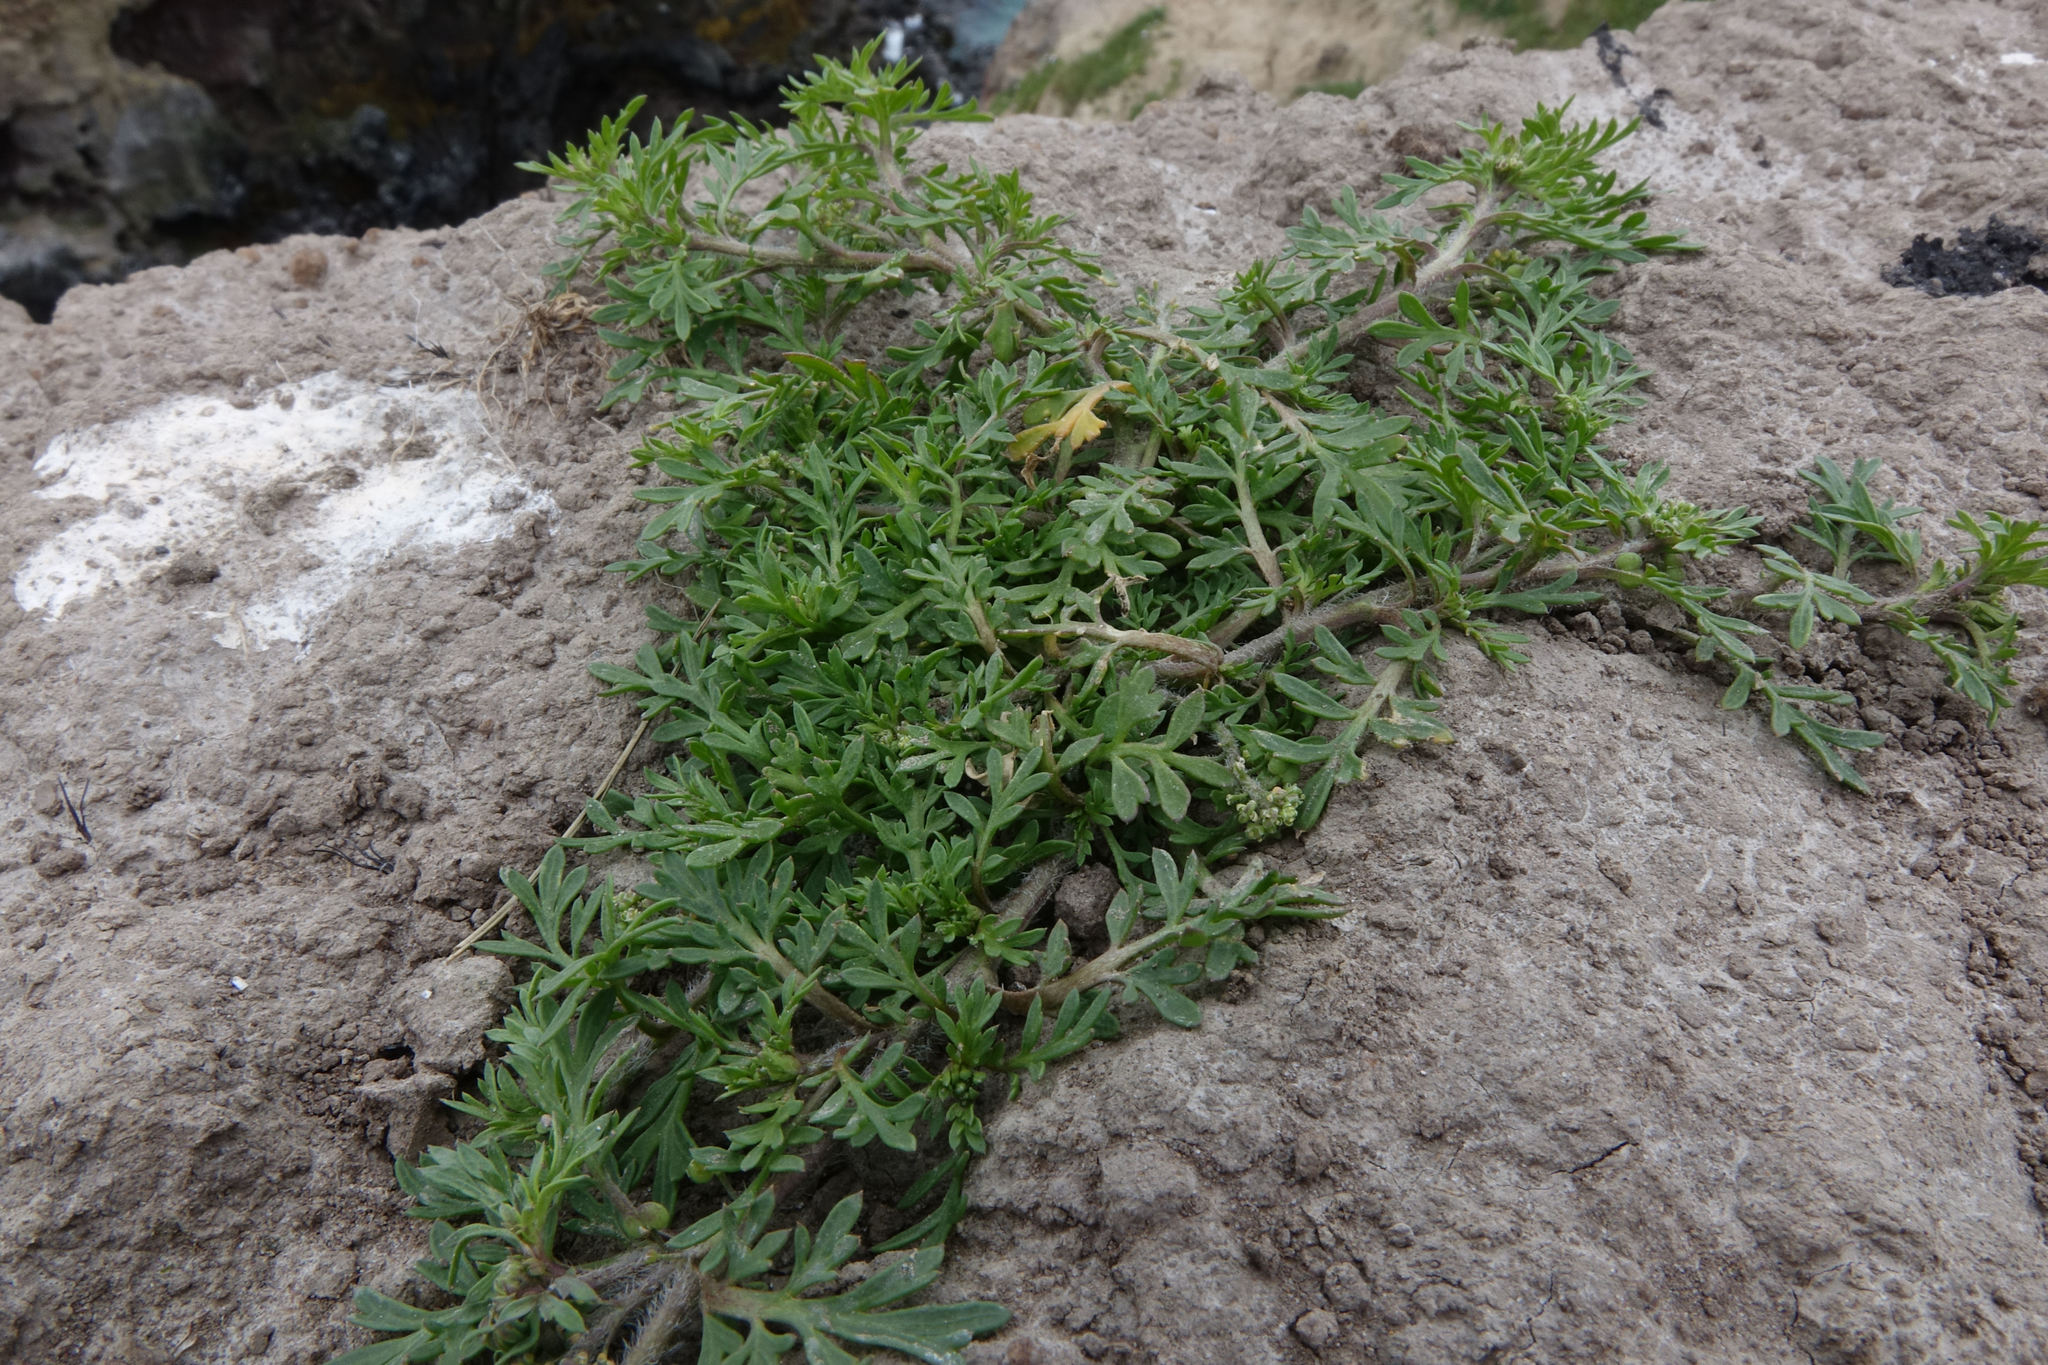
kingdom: Plantae
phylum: Tracheophyta
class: Magnoliopsida
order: Brassicales
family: Brassicaceae
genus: Lepidium
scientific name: Lepidium didymum
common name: Lesser swinecress
